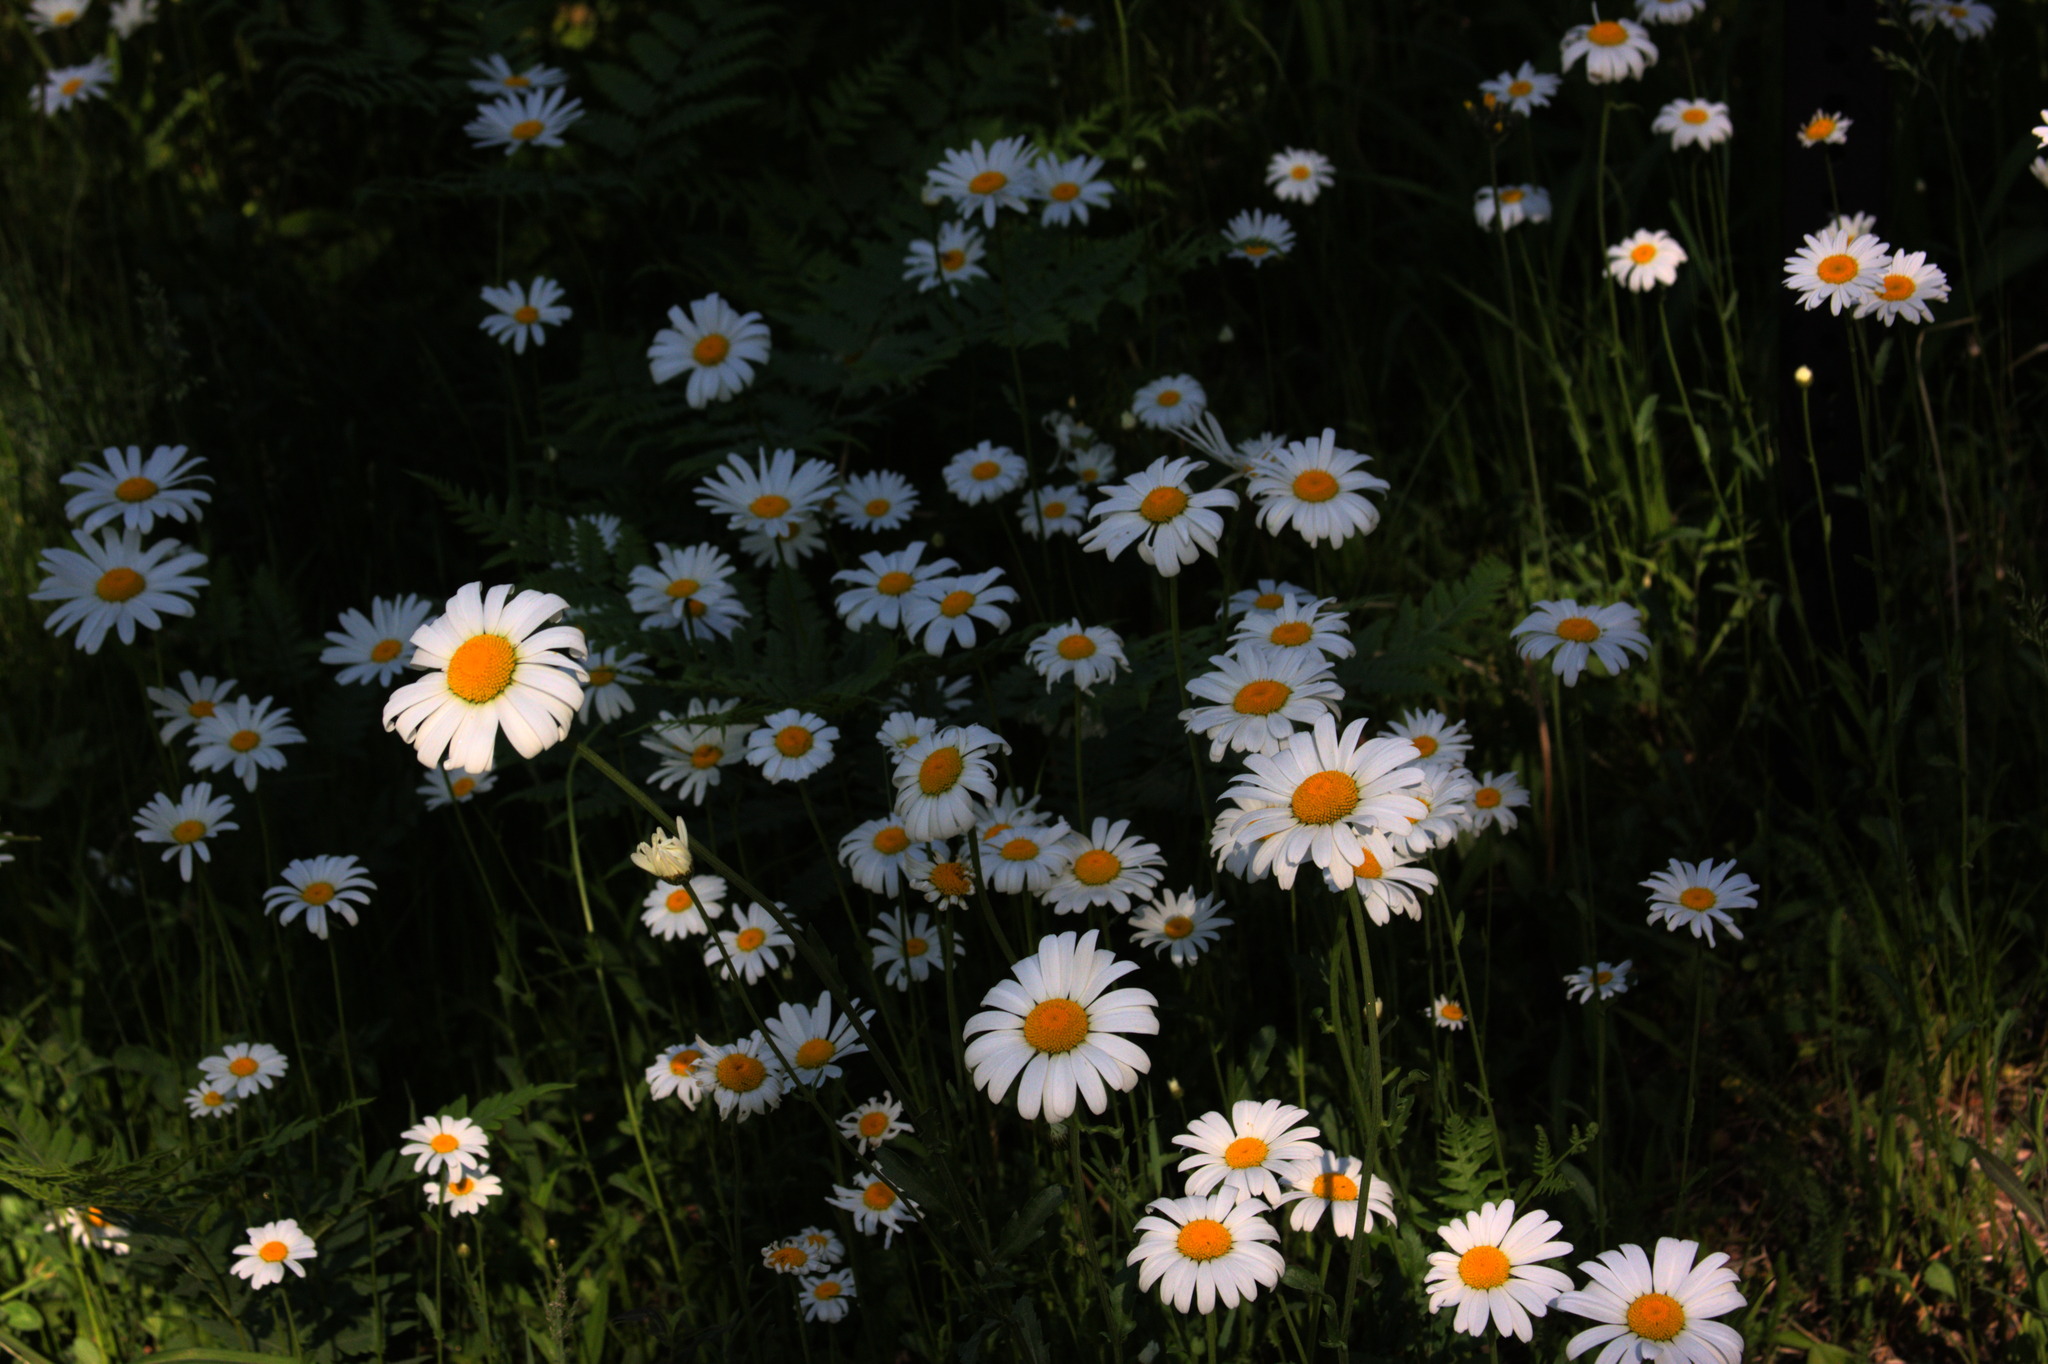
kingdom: Plantae
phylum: Tracheophyta
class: Magnoliopsida
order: Asterales
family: Asteraceae
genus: Leucanthemum
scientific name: Leucanthemum vulgare
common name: Oxeye daisy
